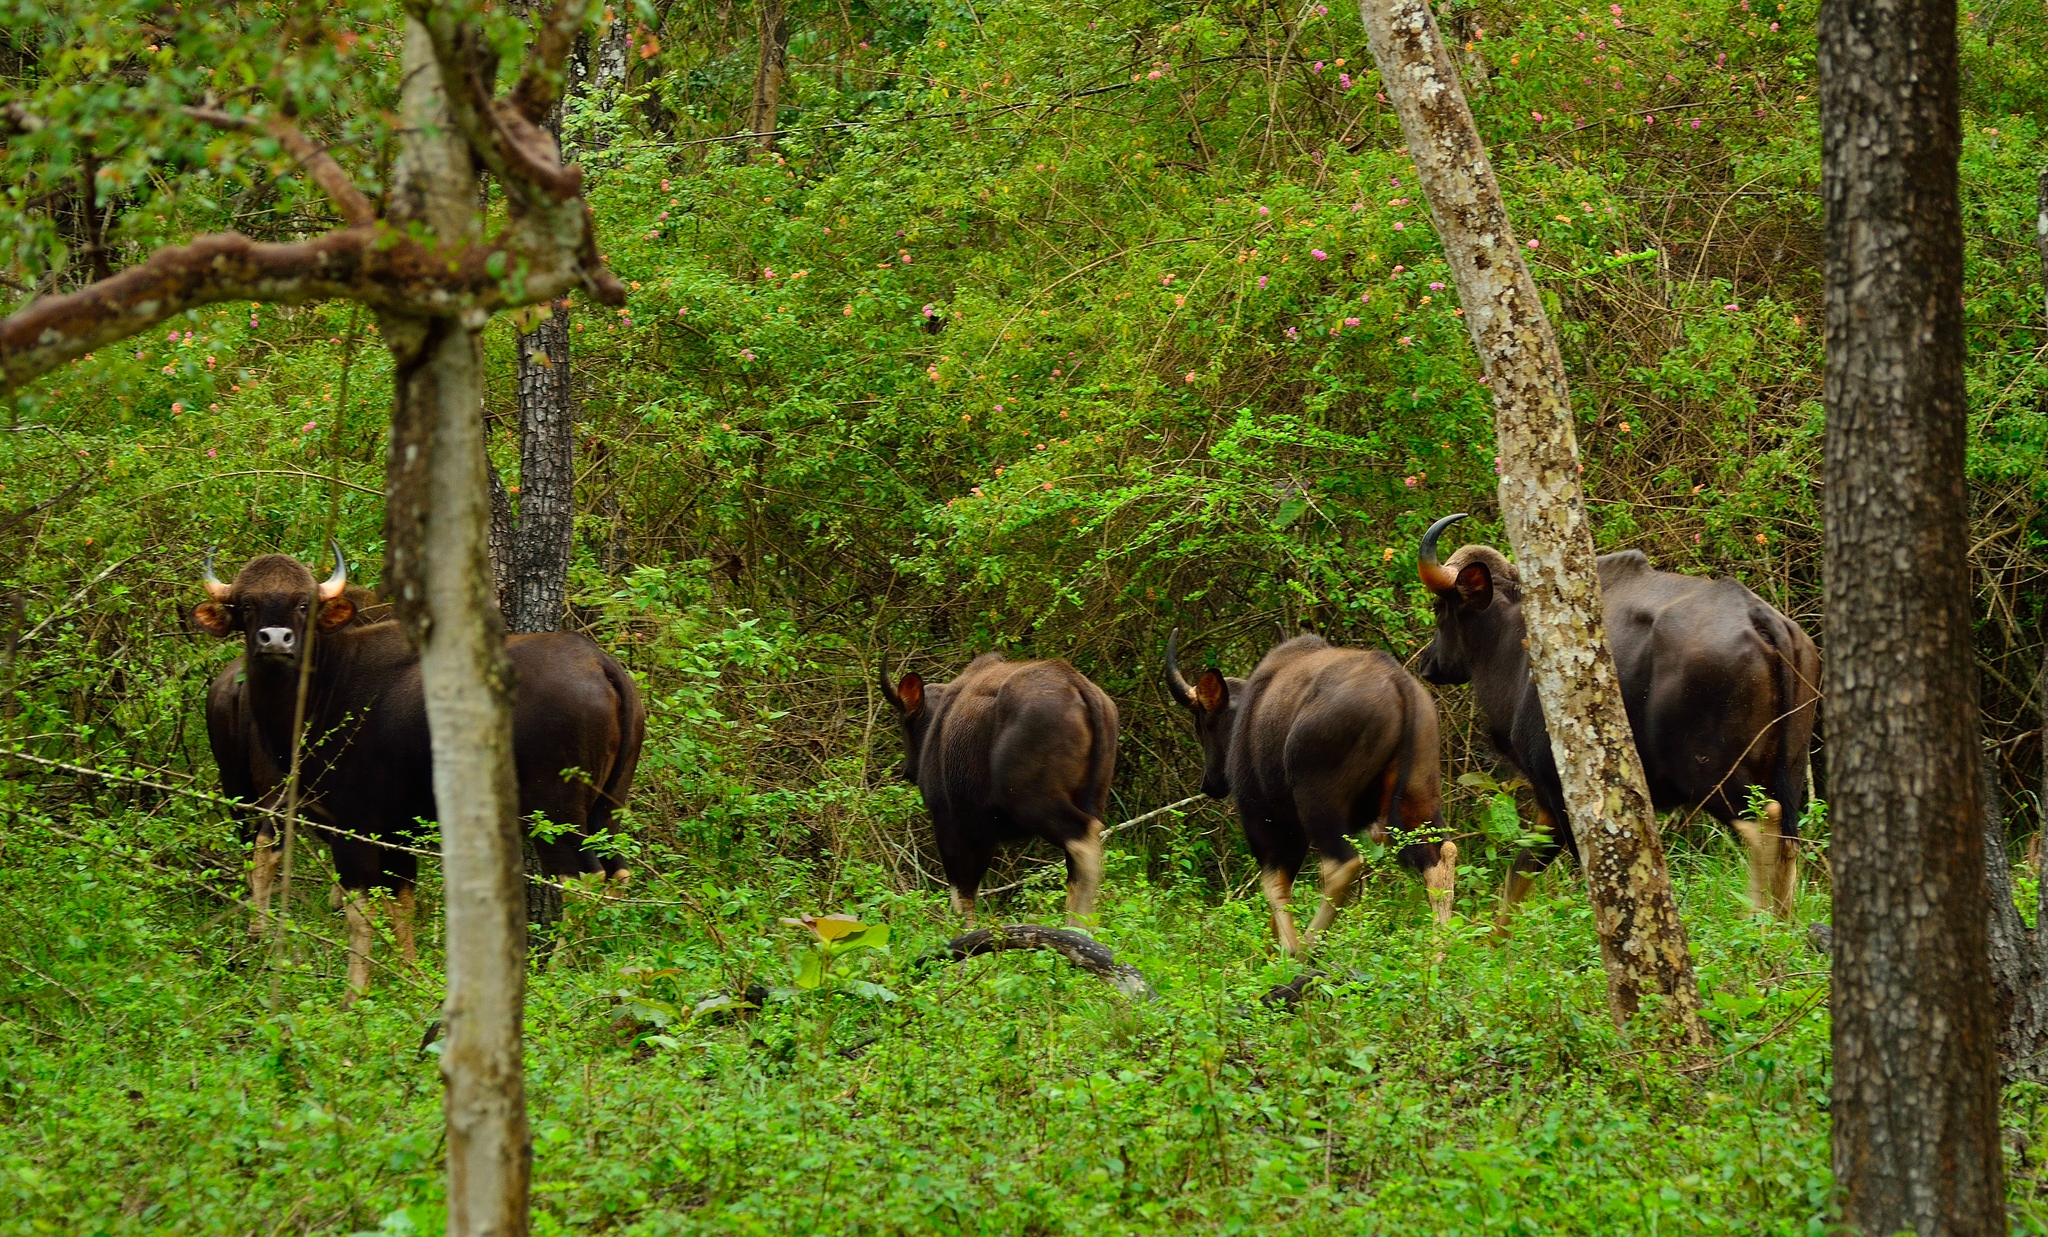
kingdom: Animalia
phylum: Chordata
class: Mammalia
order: Artiodactyla
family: Bovidae
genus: Bos
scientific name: Bos frontalis
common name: Gaur
